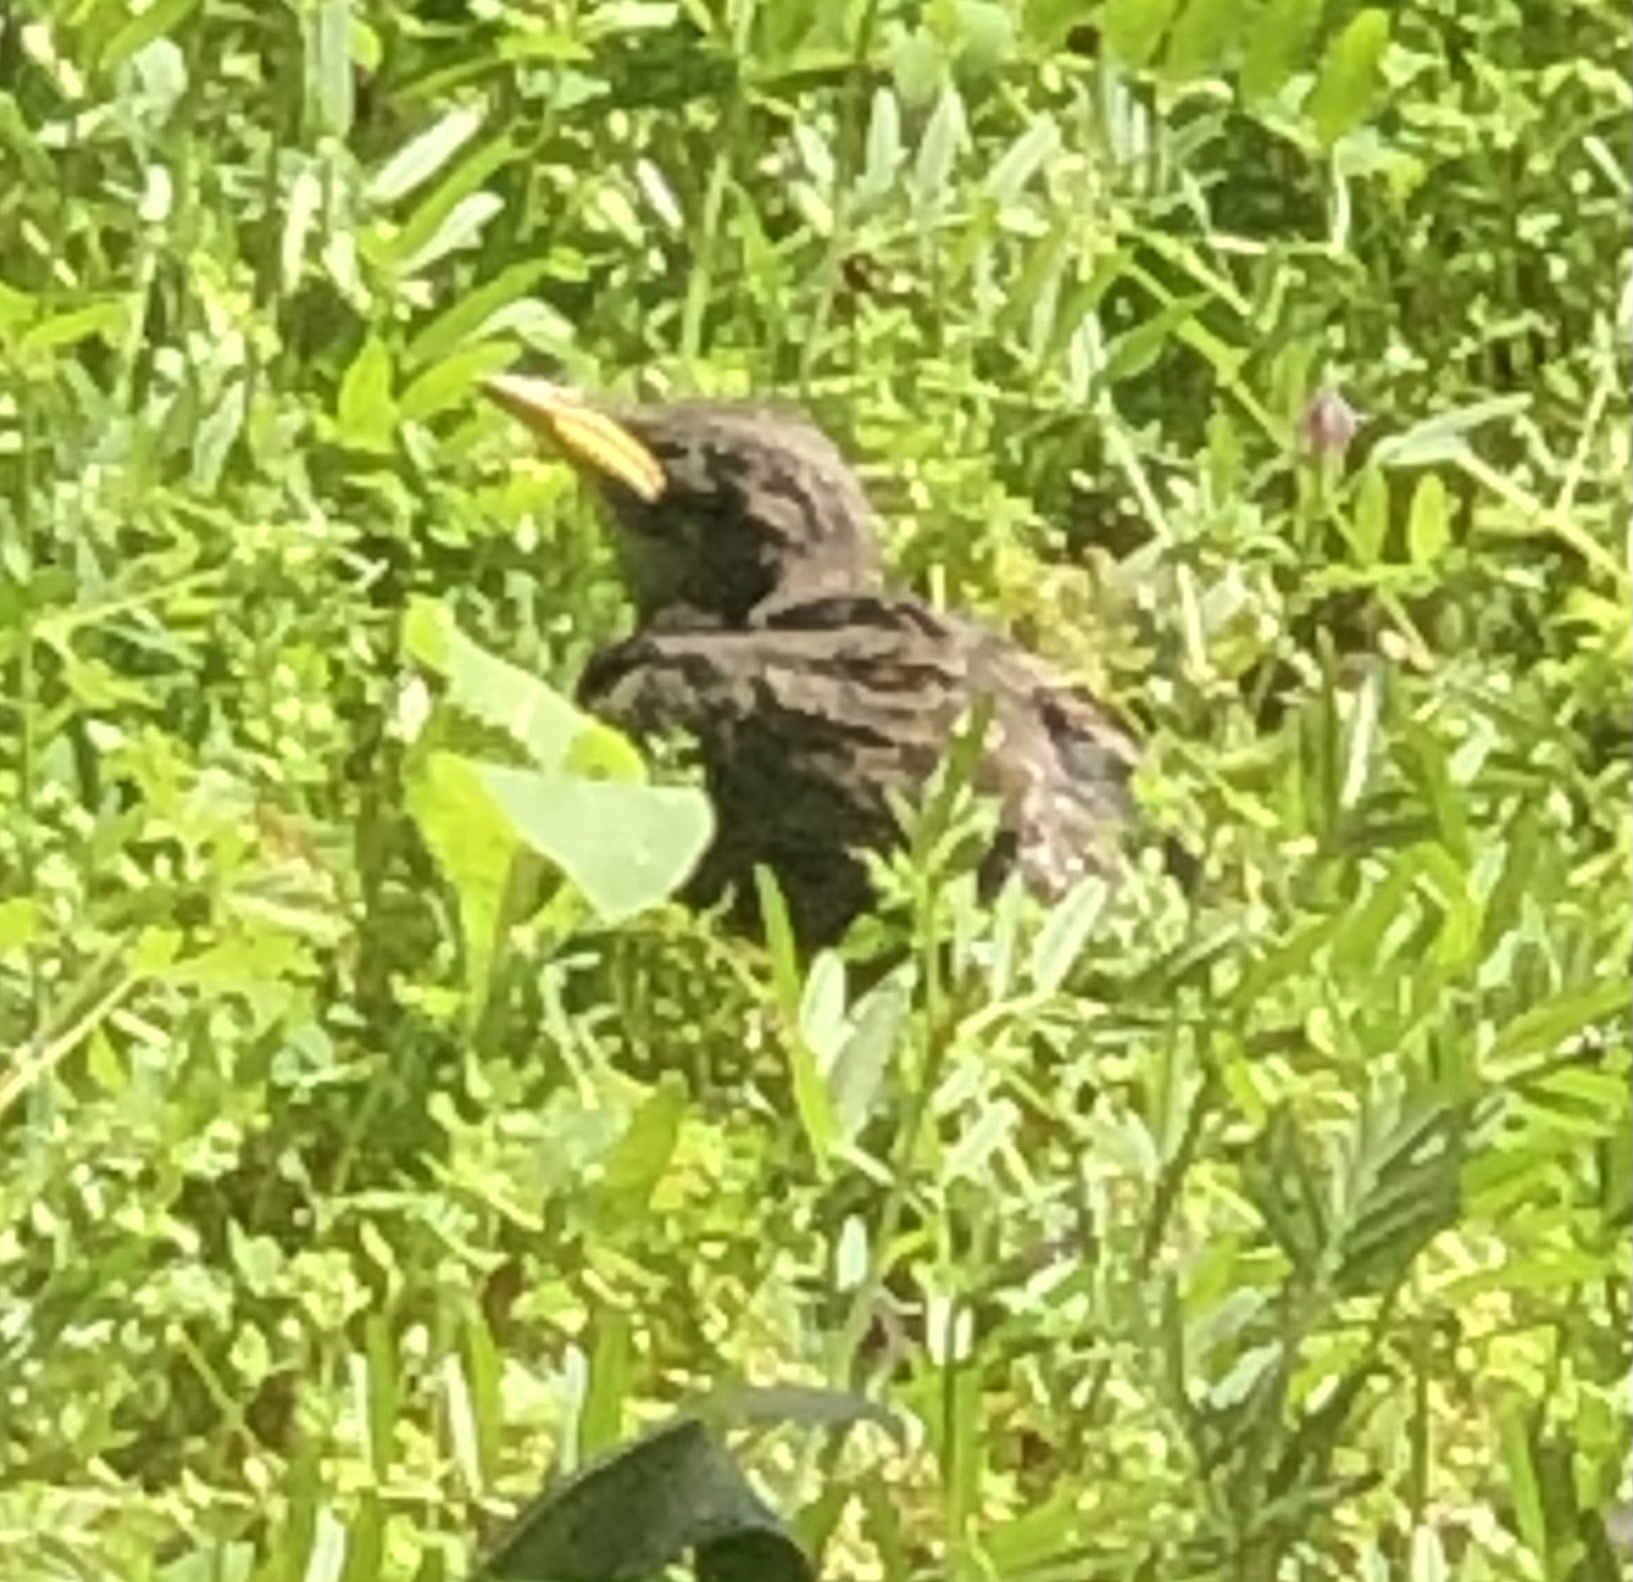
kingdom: Animalia
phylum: Chordata
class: Aves
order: Passeriformes
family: Sturnidae
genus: Sturnus
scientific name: Sturnus vulgaris
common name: Common starling
